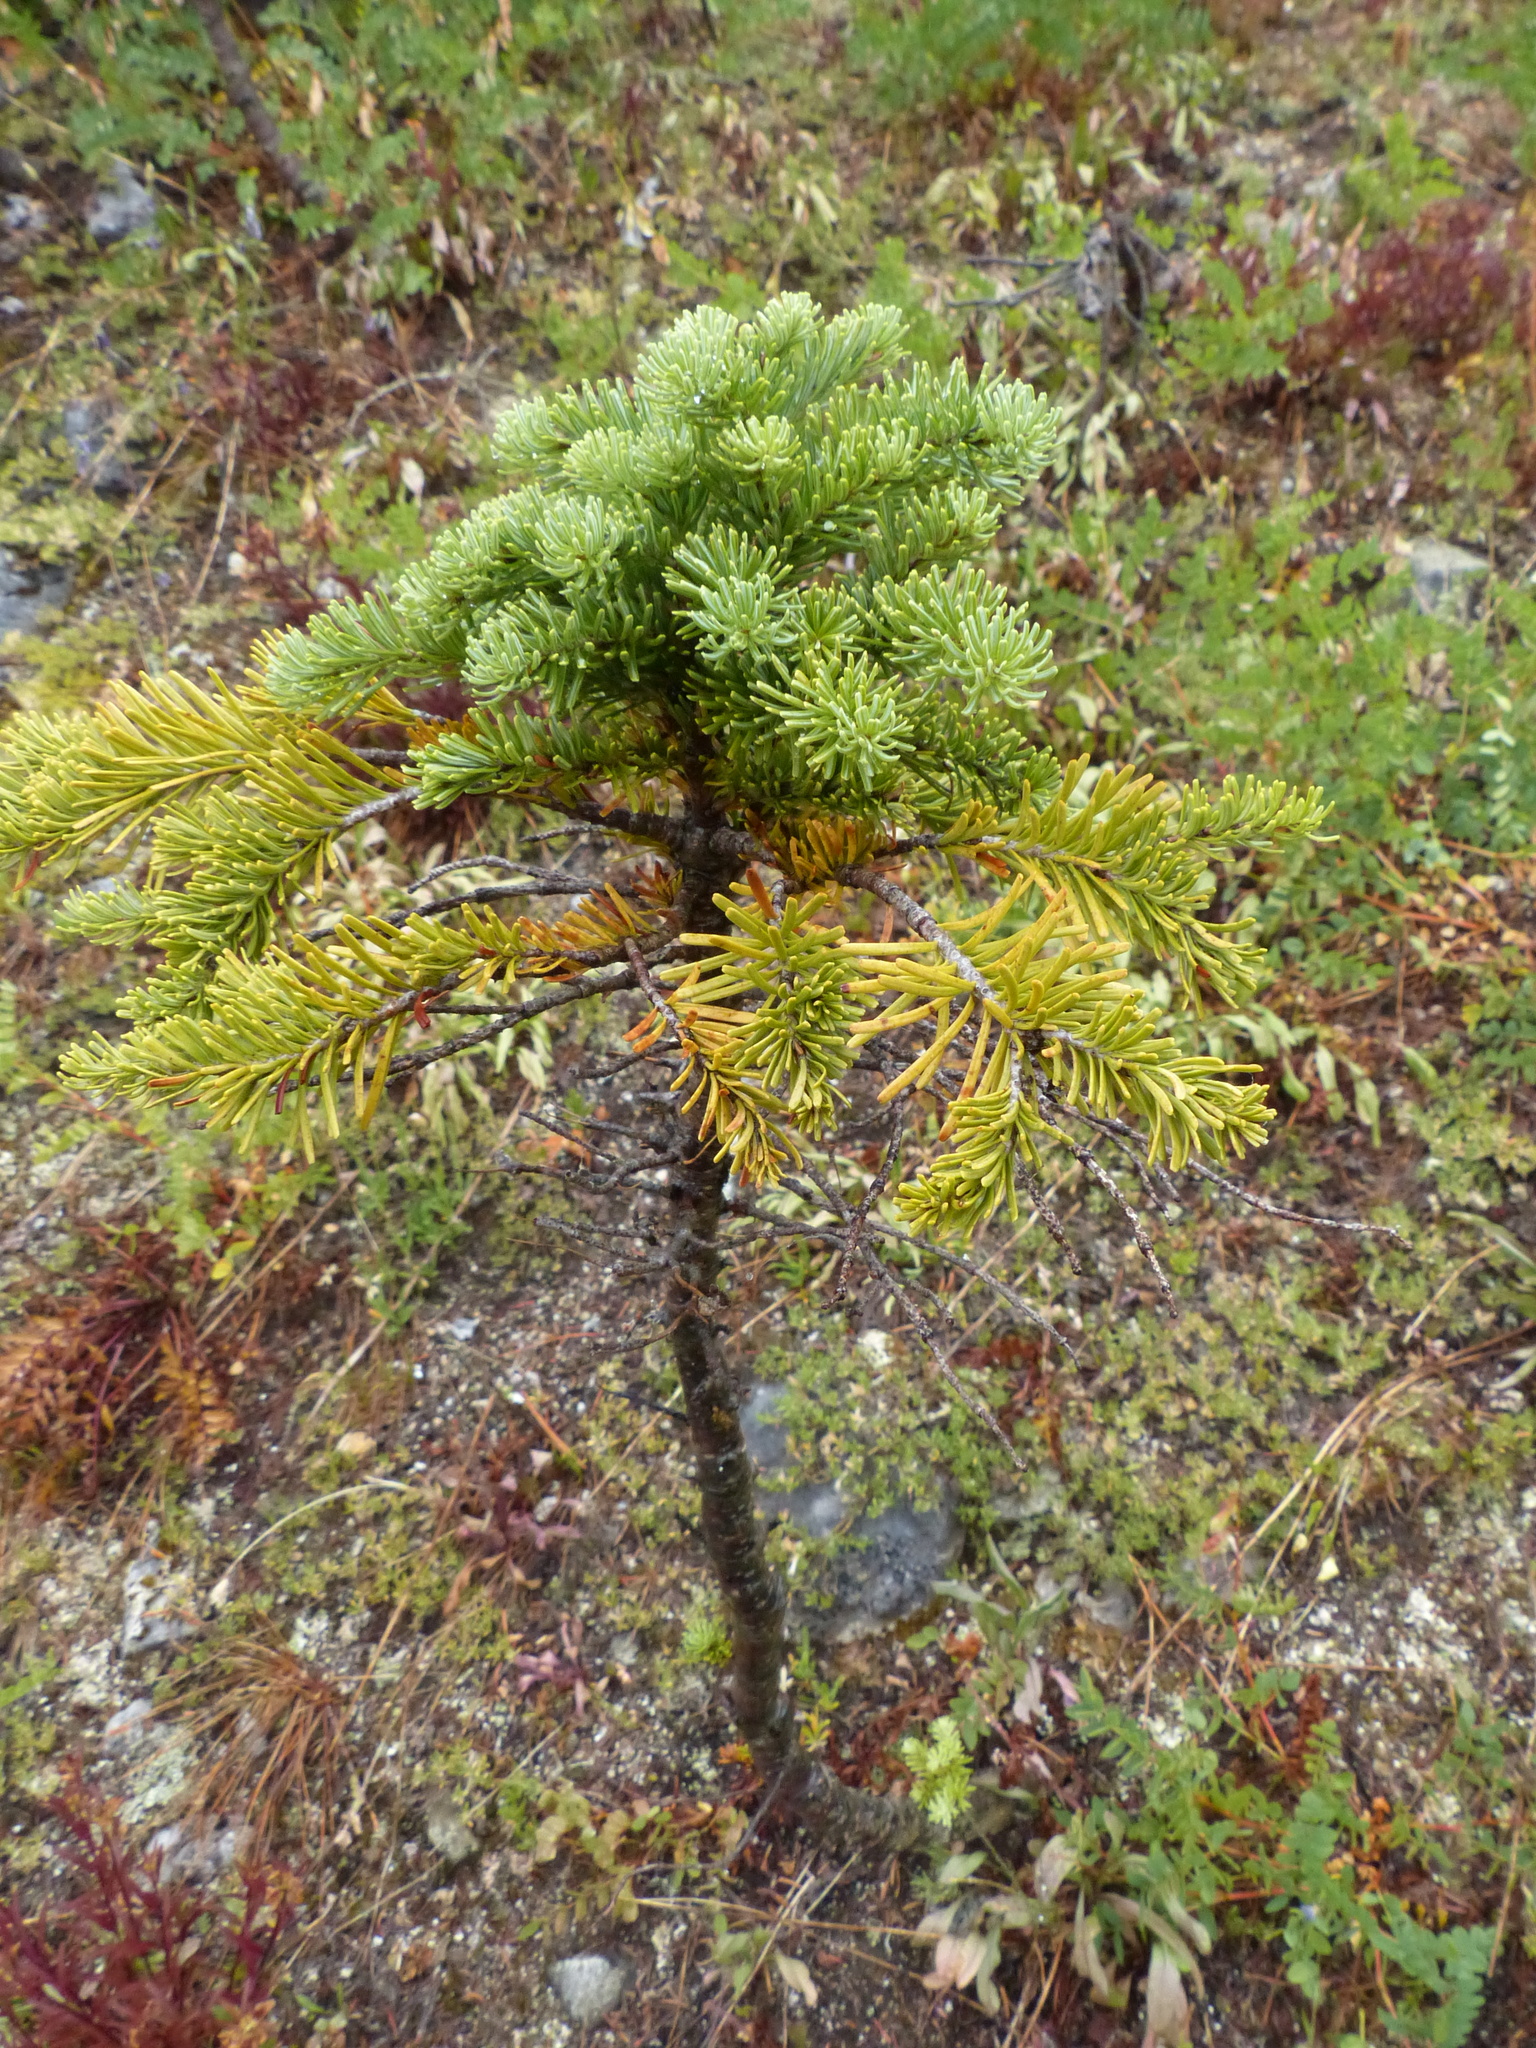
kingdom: Plantae
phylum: Tracheophyta
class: Pinopsida
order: Pinales
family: Pinaceae
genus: Abies
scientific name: Abies lasiocarpa
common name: Subalpine fir
